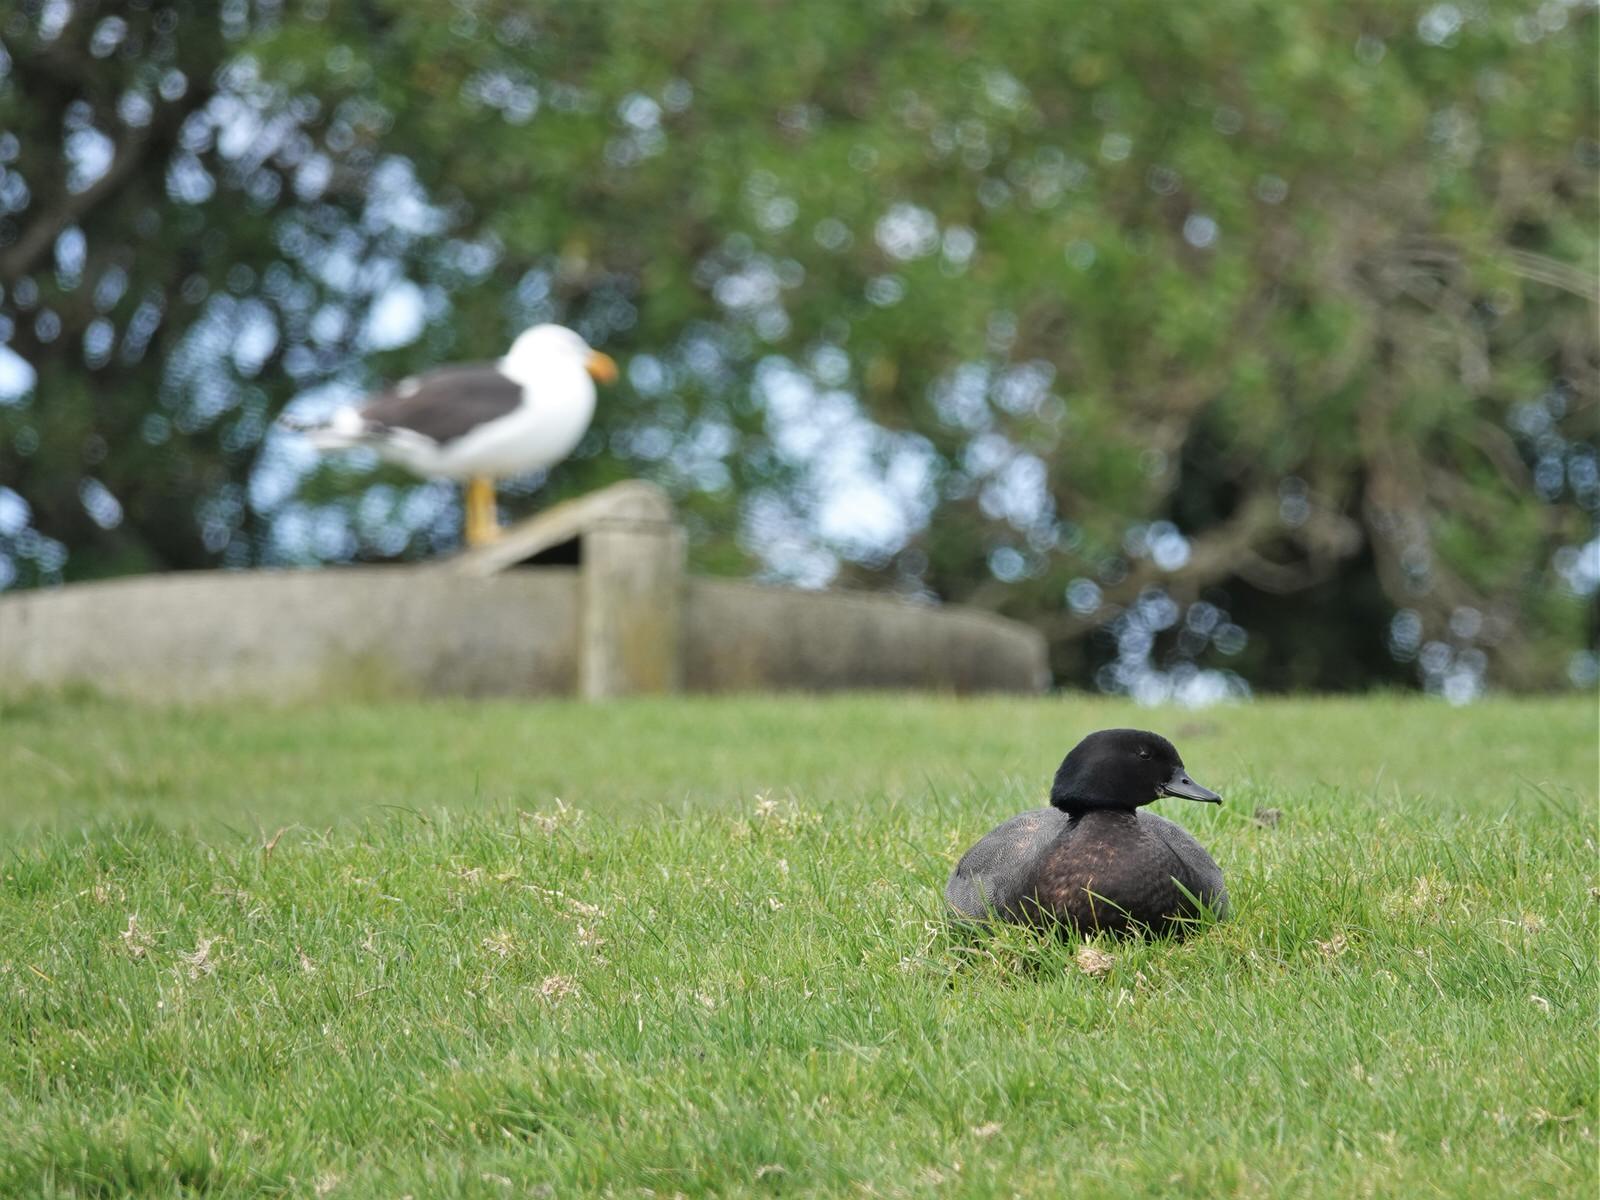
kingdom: Animalia
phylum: Chordata
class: Aves
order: Anseriformes
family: Anatidae
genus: Tadorna
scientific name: Tadorna variegata
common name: Paradise shelduck
